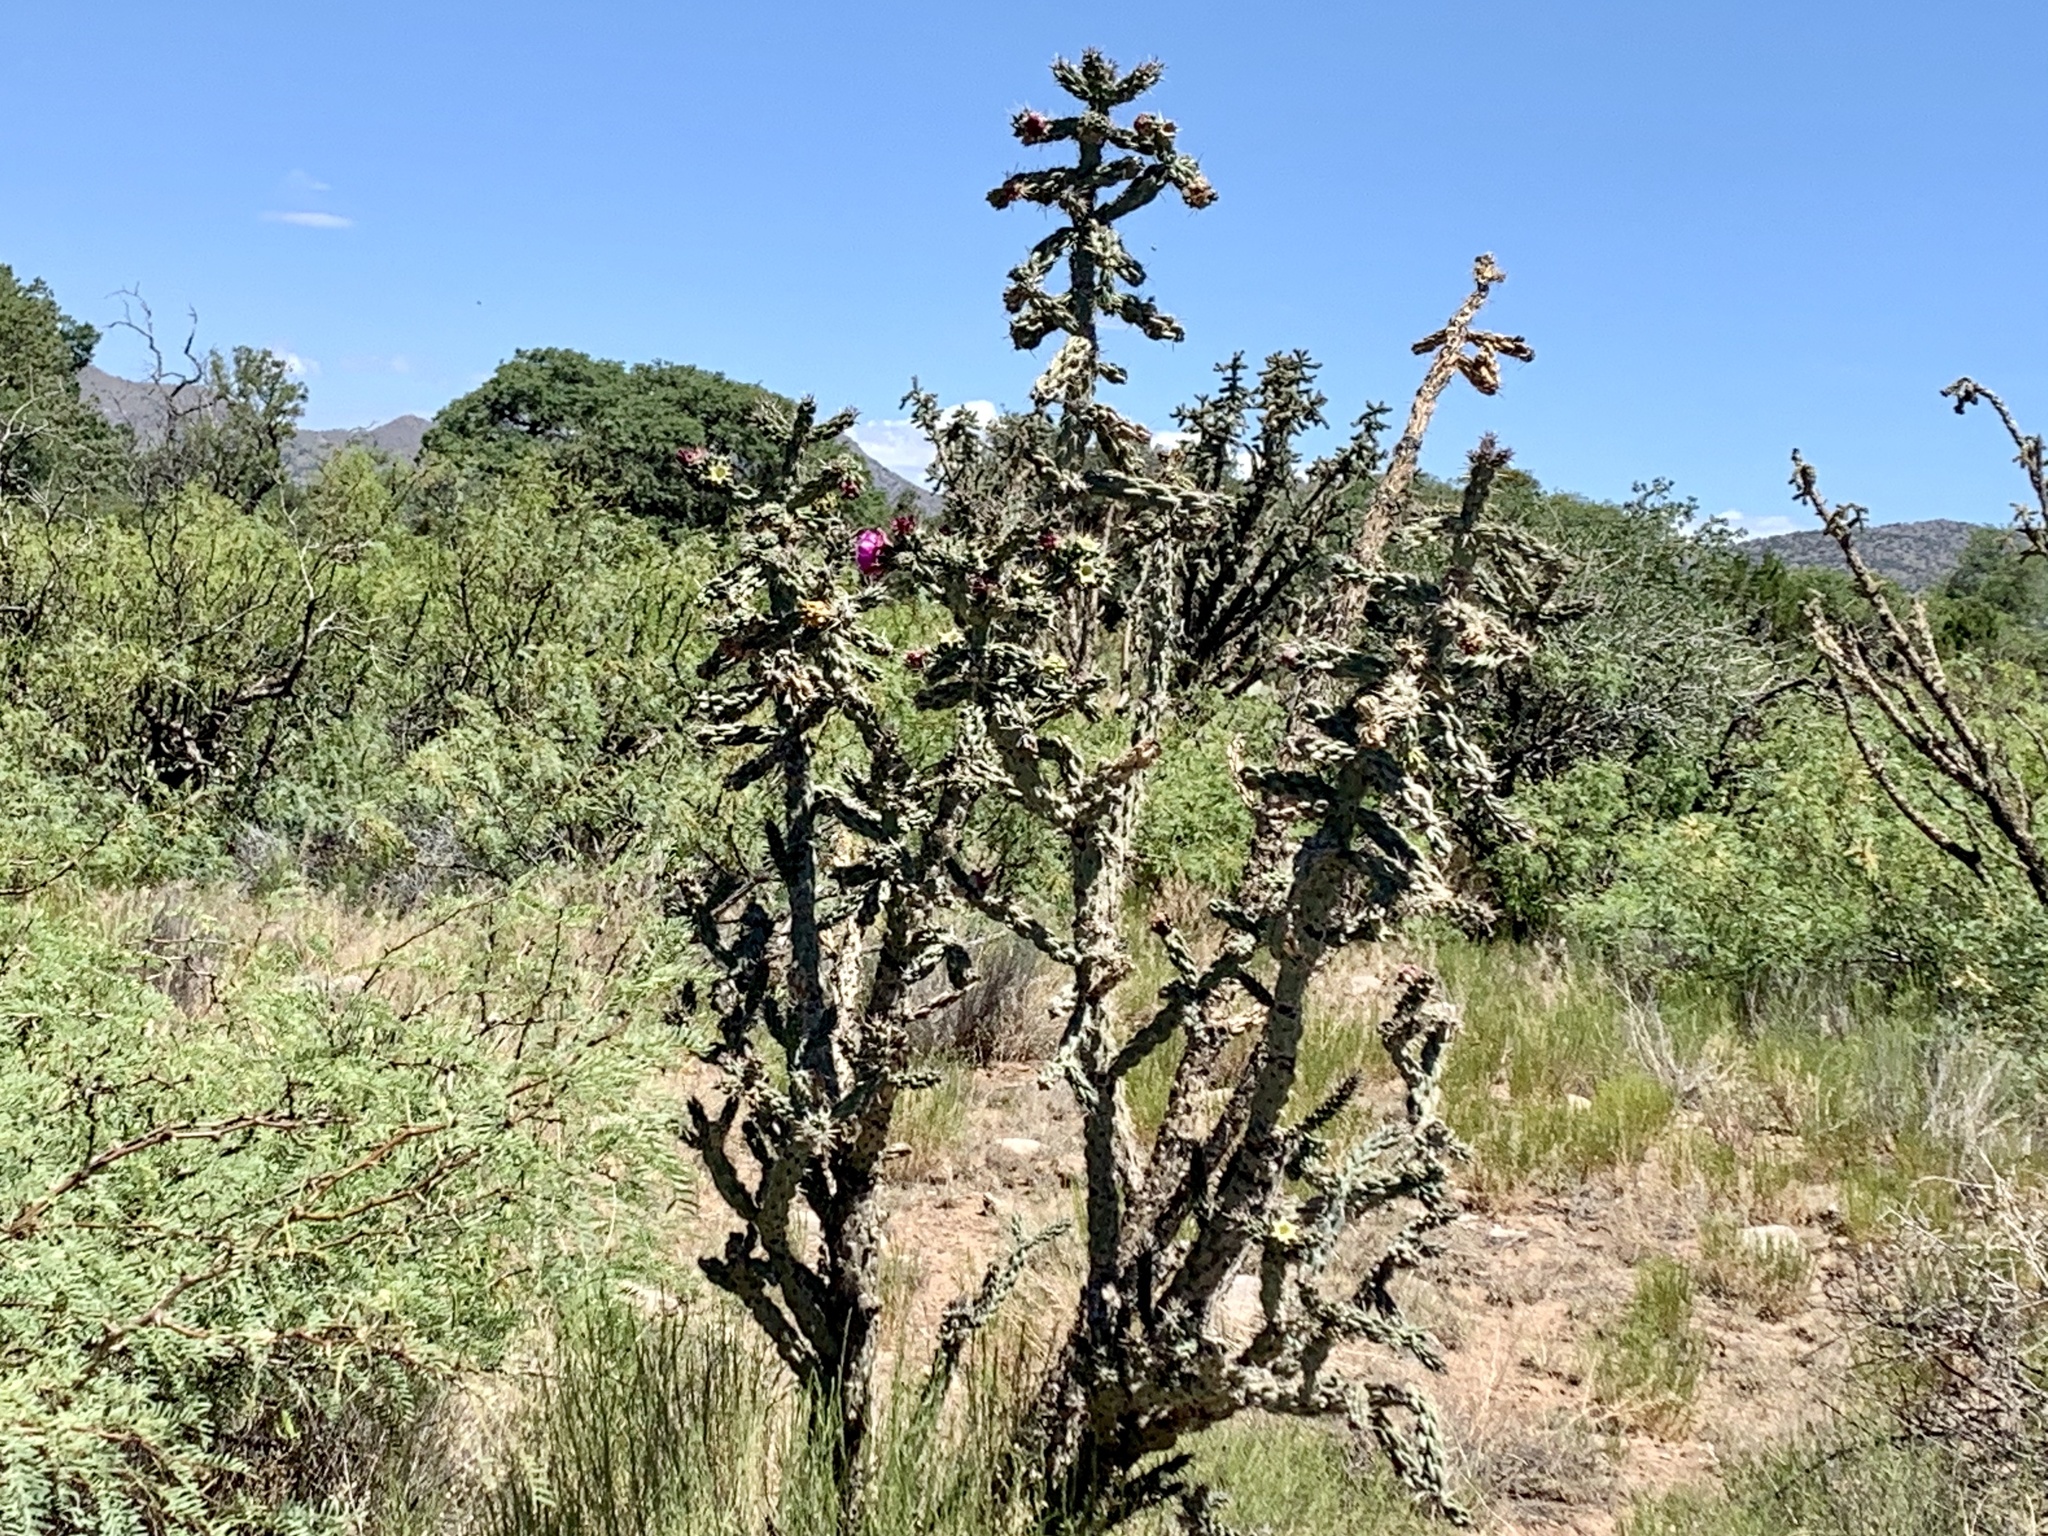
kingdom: Plantae
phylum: Tracheophyta
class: Magnoliopsida
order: Caryophyllales
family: Cactaceae
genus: Cylindropuntia
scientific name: Cylindropuntia imbricata
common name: Candelabrum cactus
